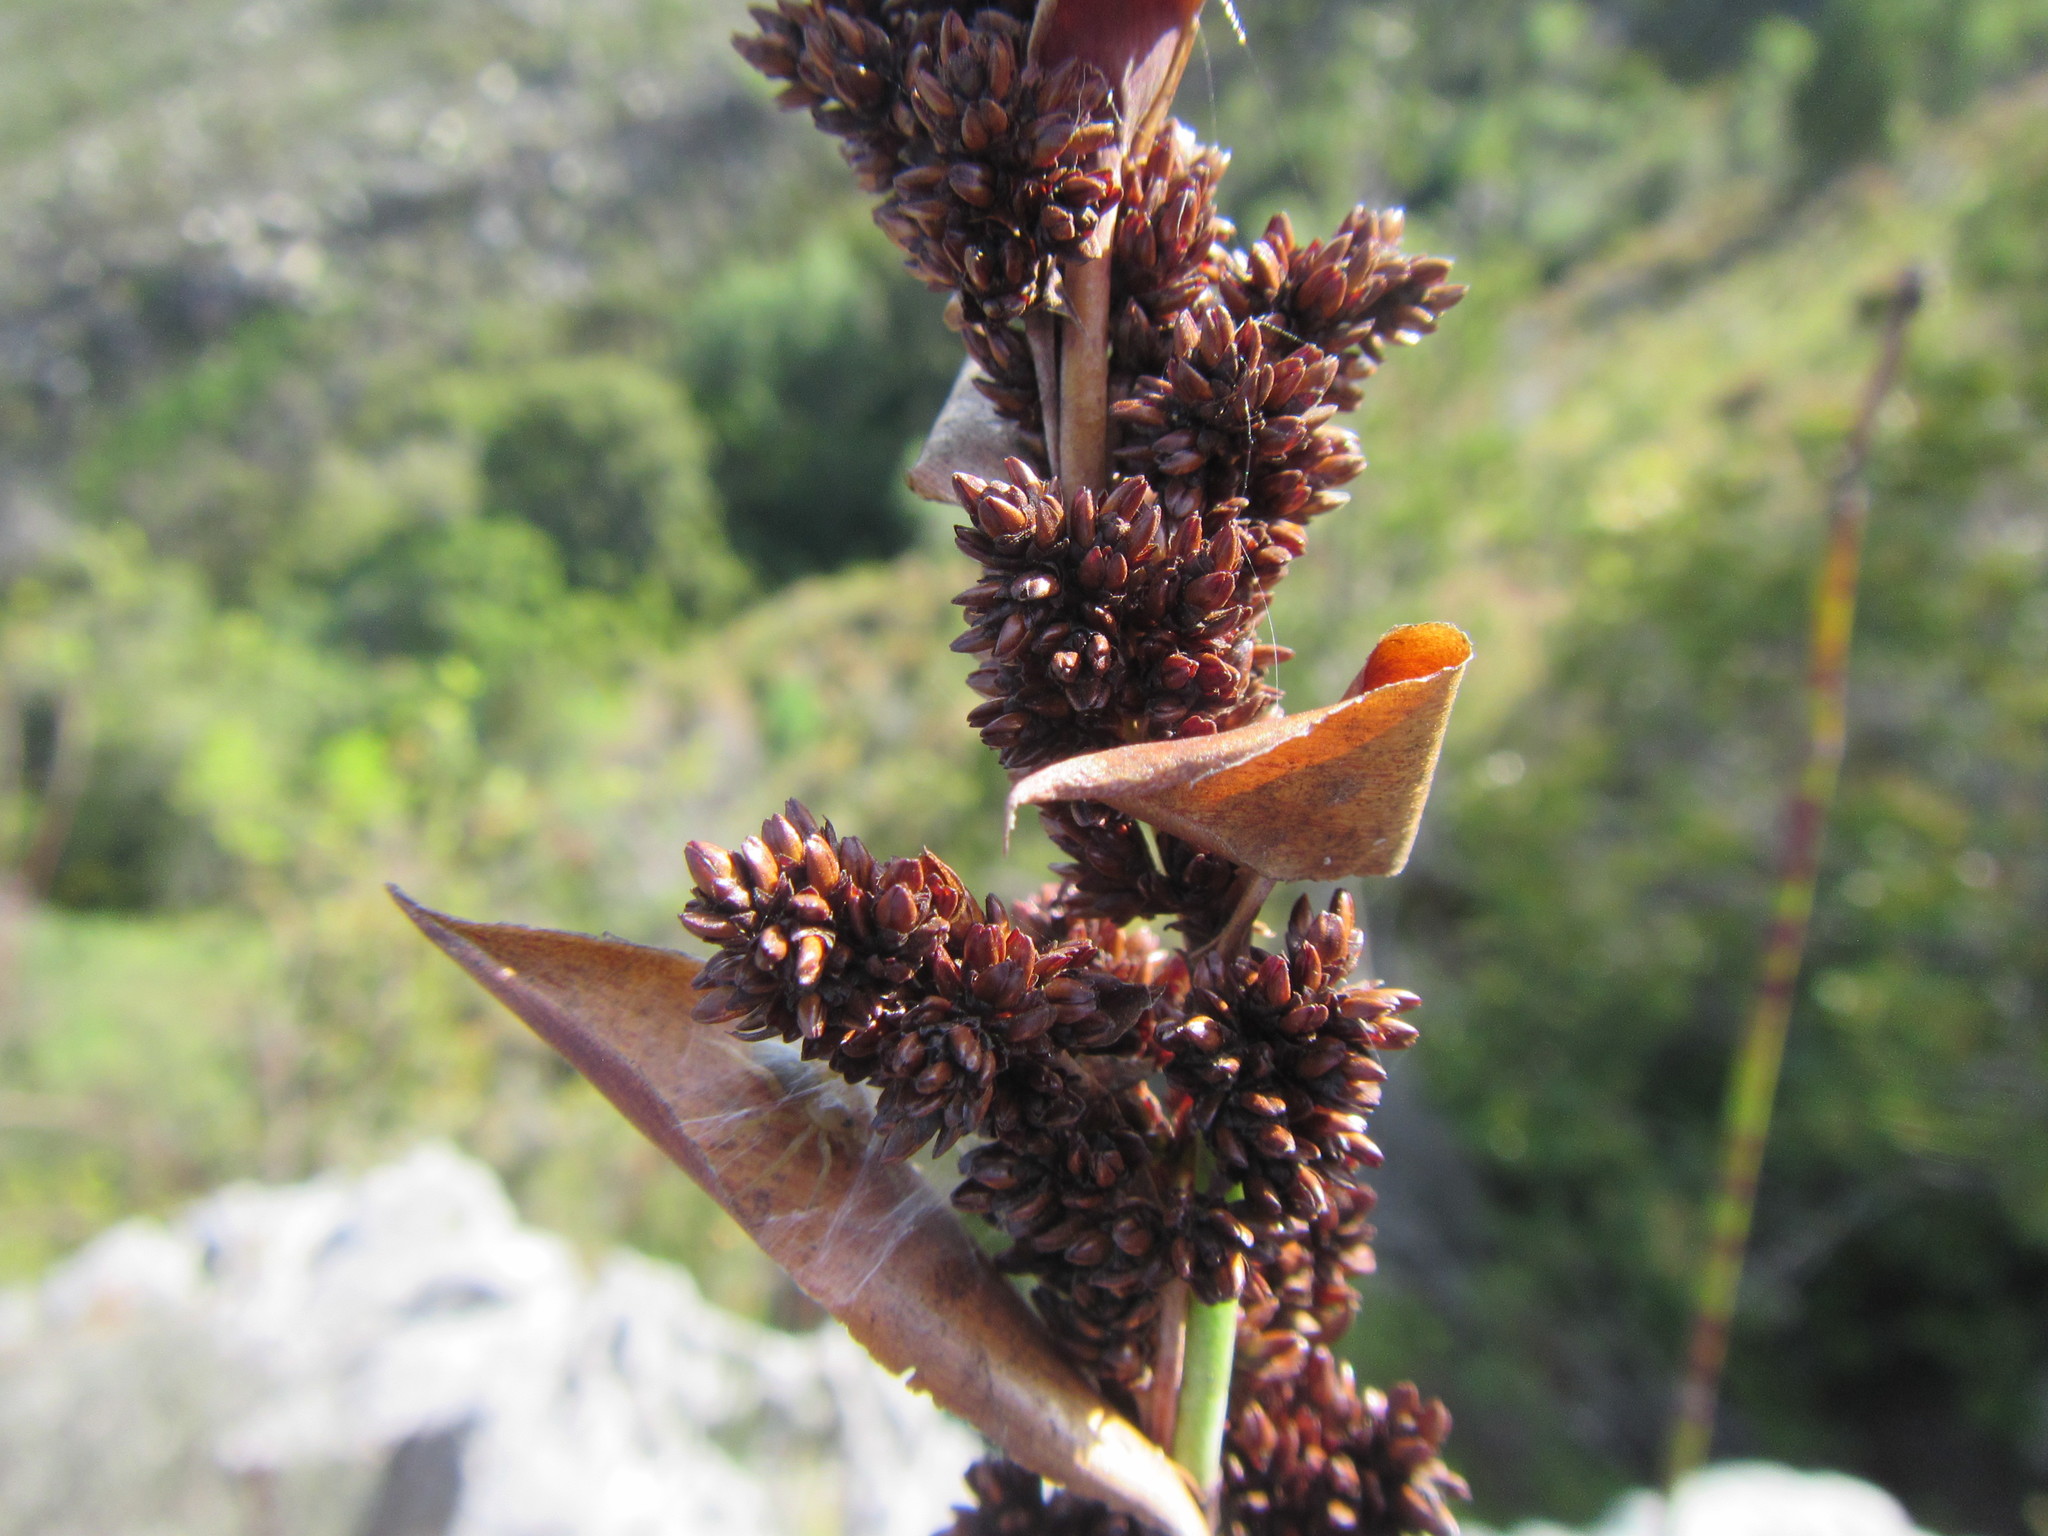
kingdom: Plantae
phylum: Tracheophyta
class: Liliopsida
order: Poales
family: Restionaceae
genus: Elegia
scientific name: Elegia aggregata
